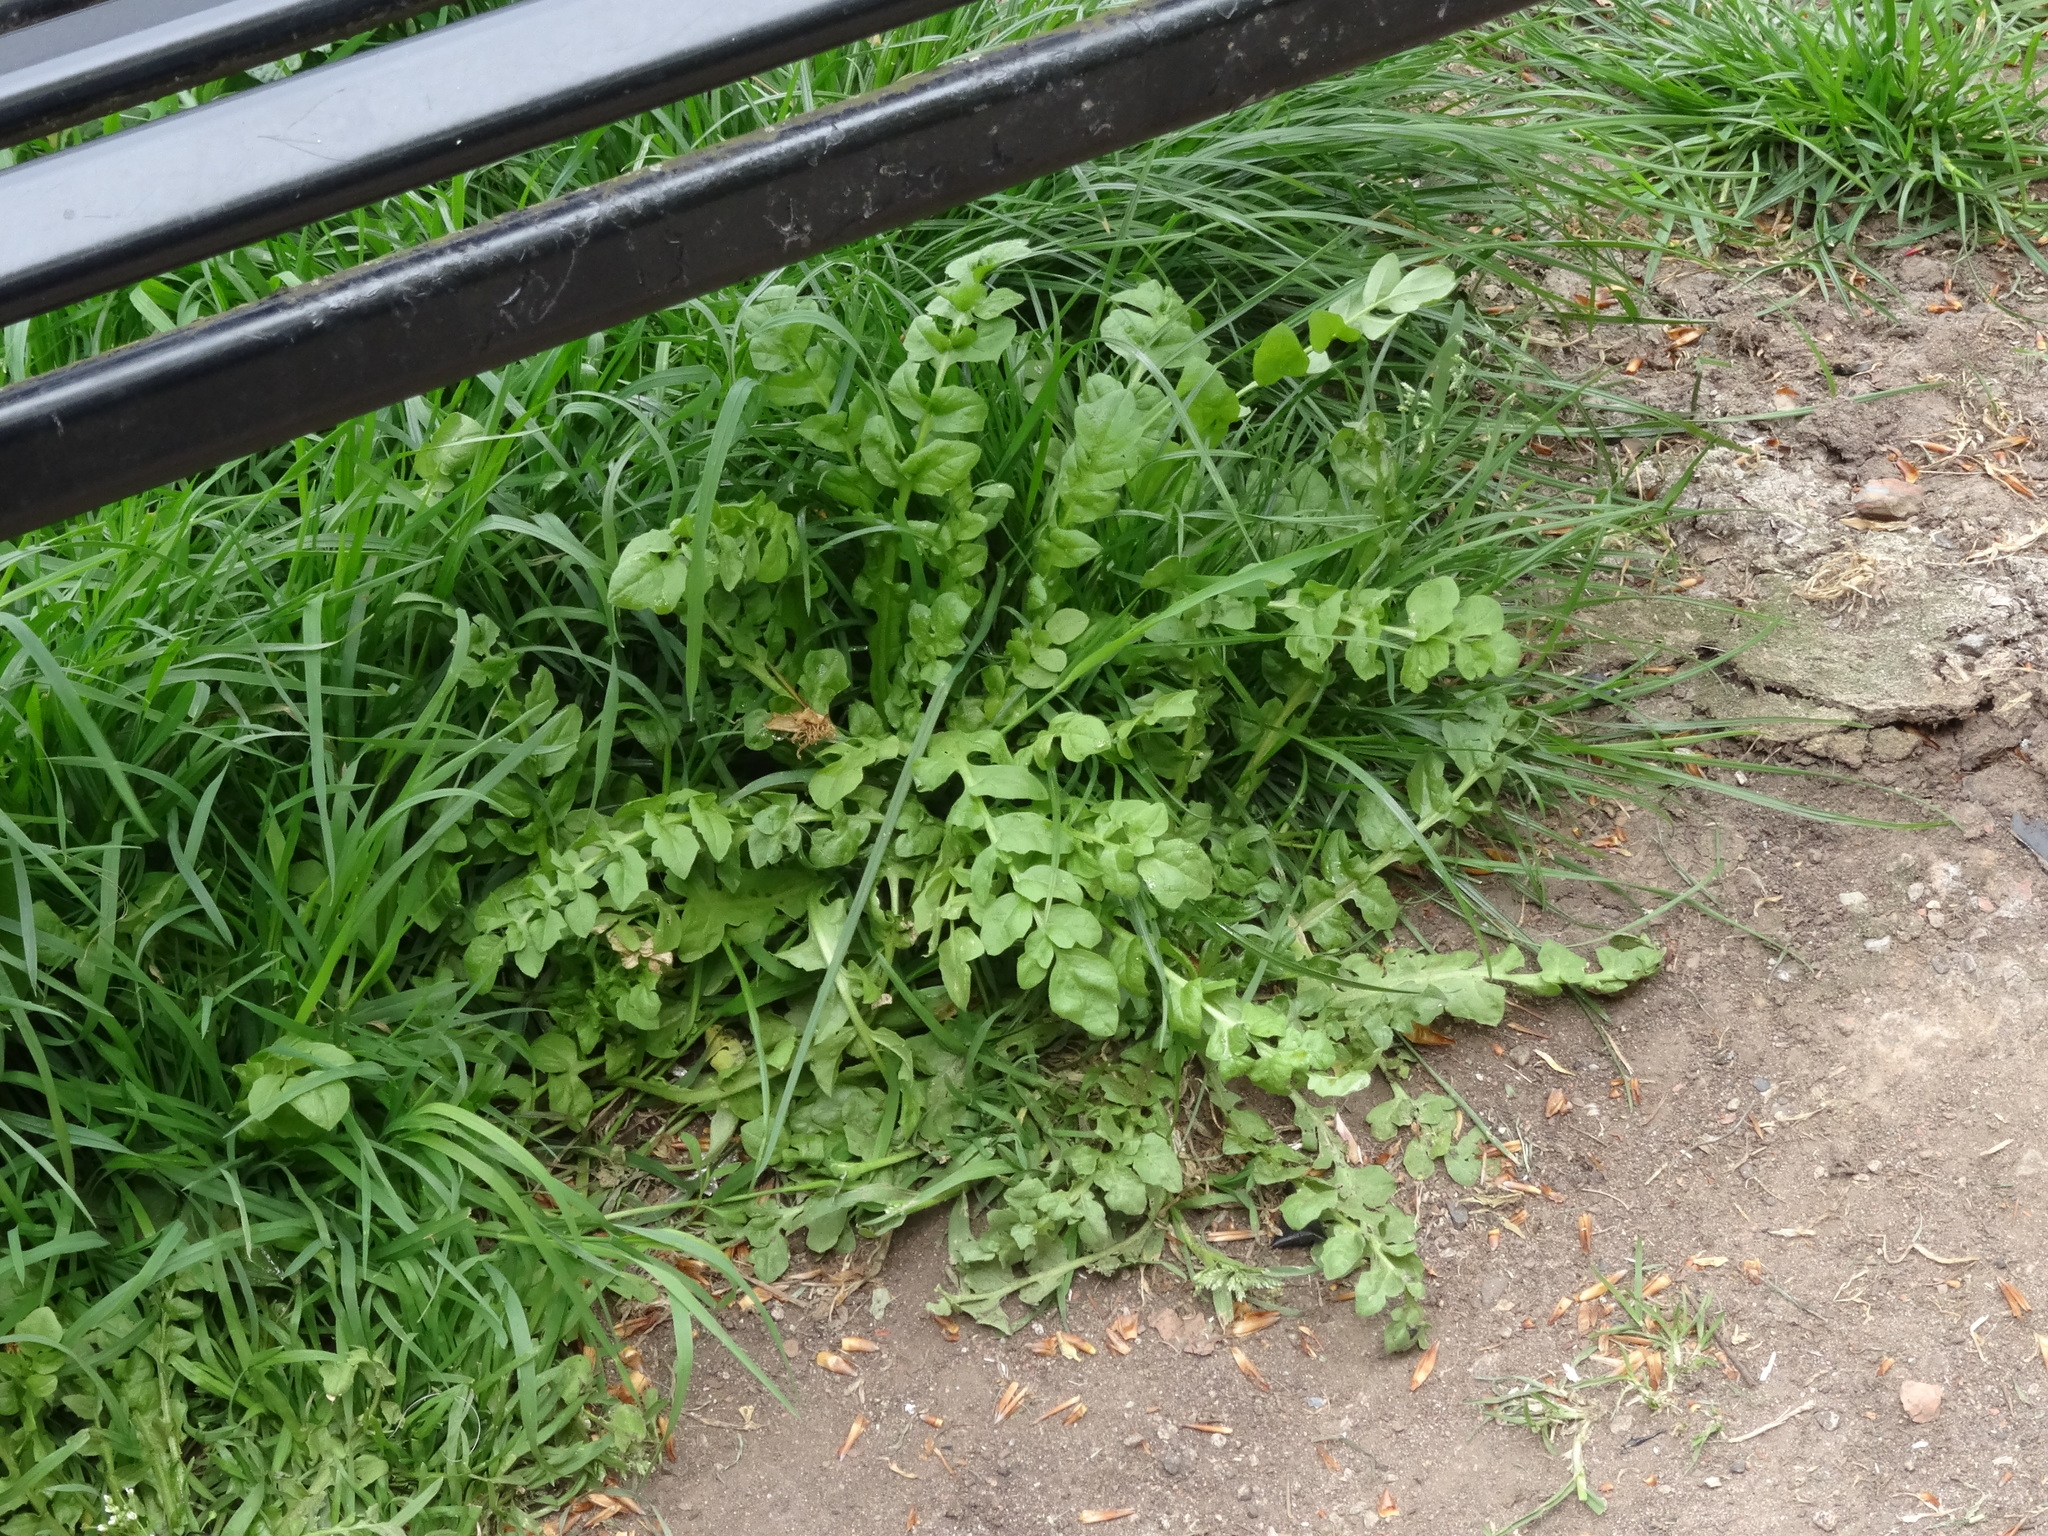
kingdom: Plantae
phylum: Tracheophyta
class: Magnoliopsida
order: Brassicales
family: Brassicaceae
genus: Capsella
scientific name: Capsella bursa-pastoris
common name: Shepherd's purse
